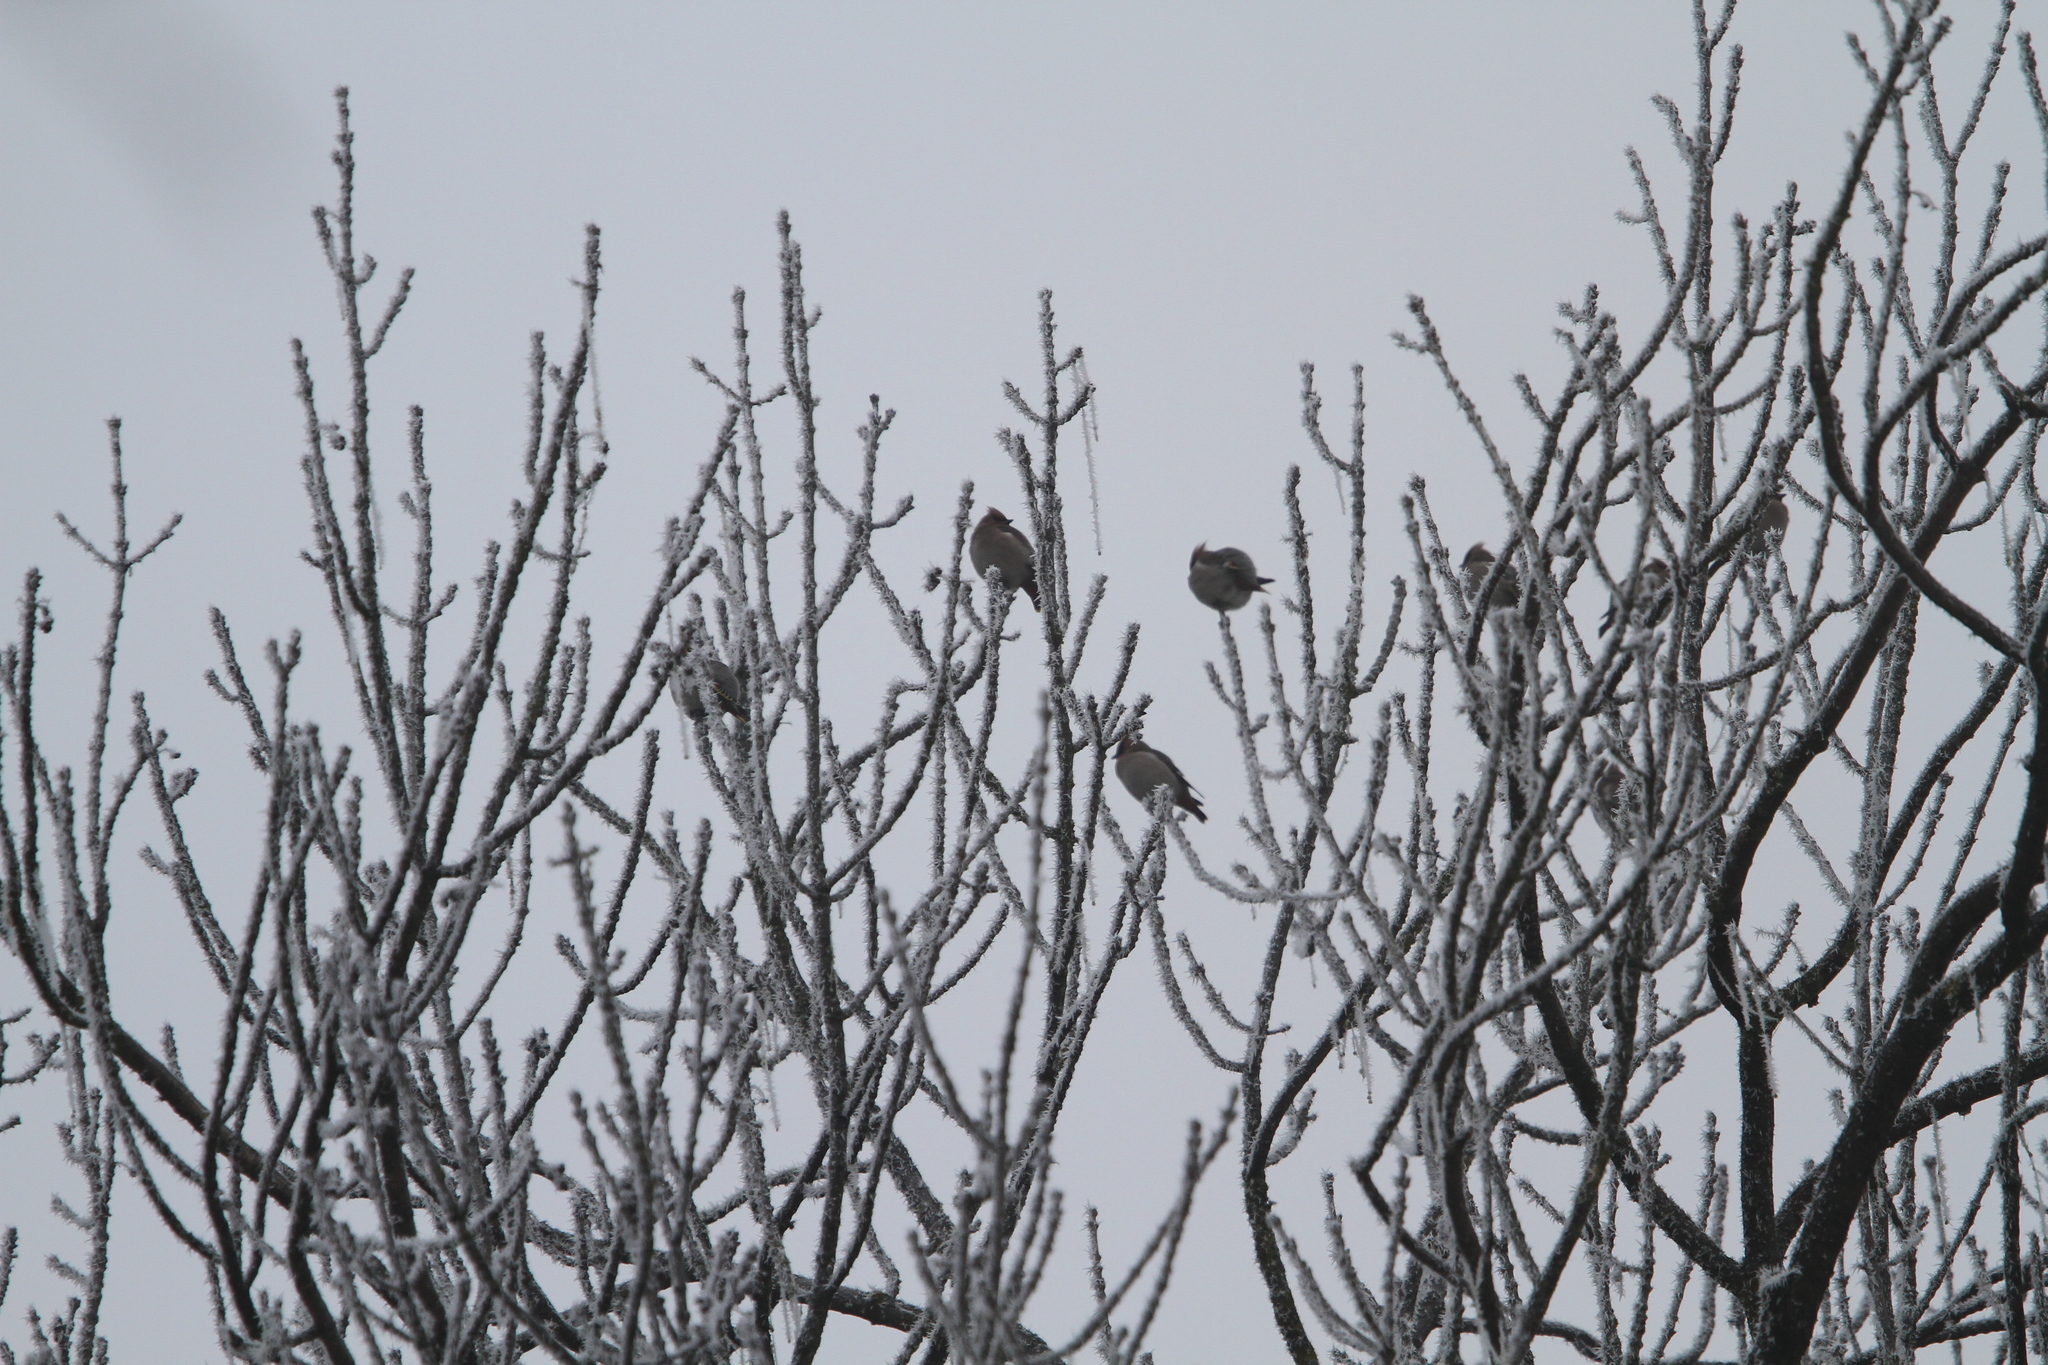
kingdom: Animalia
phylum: Chordata
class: Aves
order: Passeriformes
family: Bombycillidae
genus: Bombycilla
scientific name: Bombycilla garrulus
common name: Bohemian waxwing
